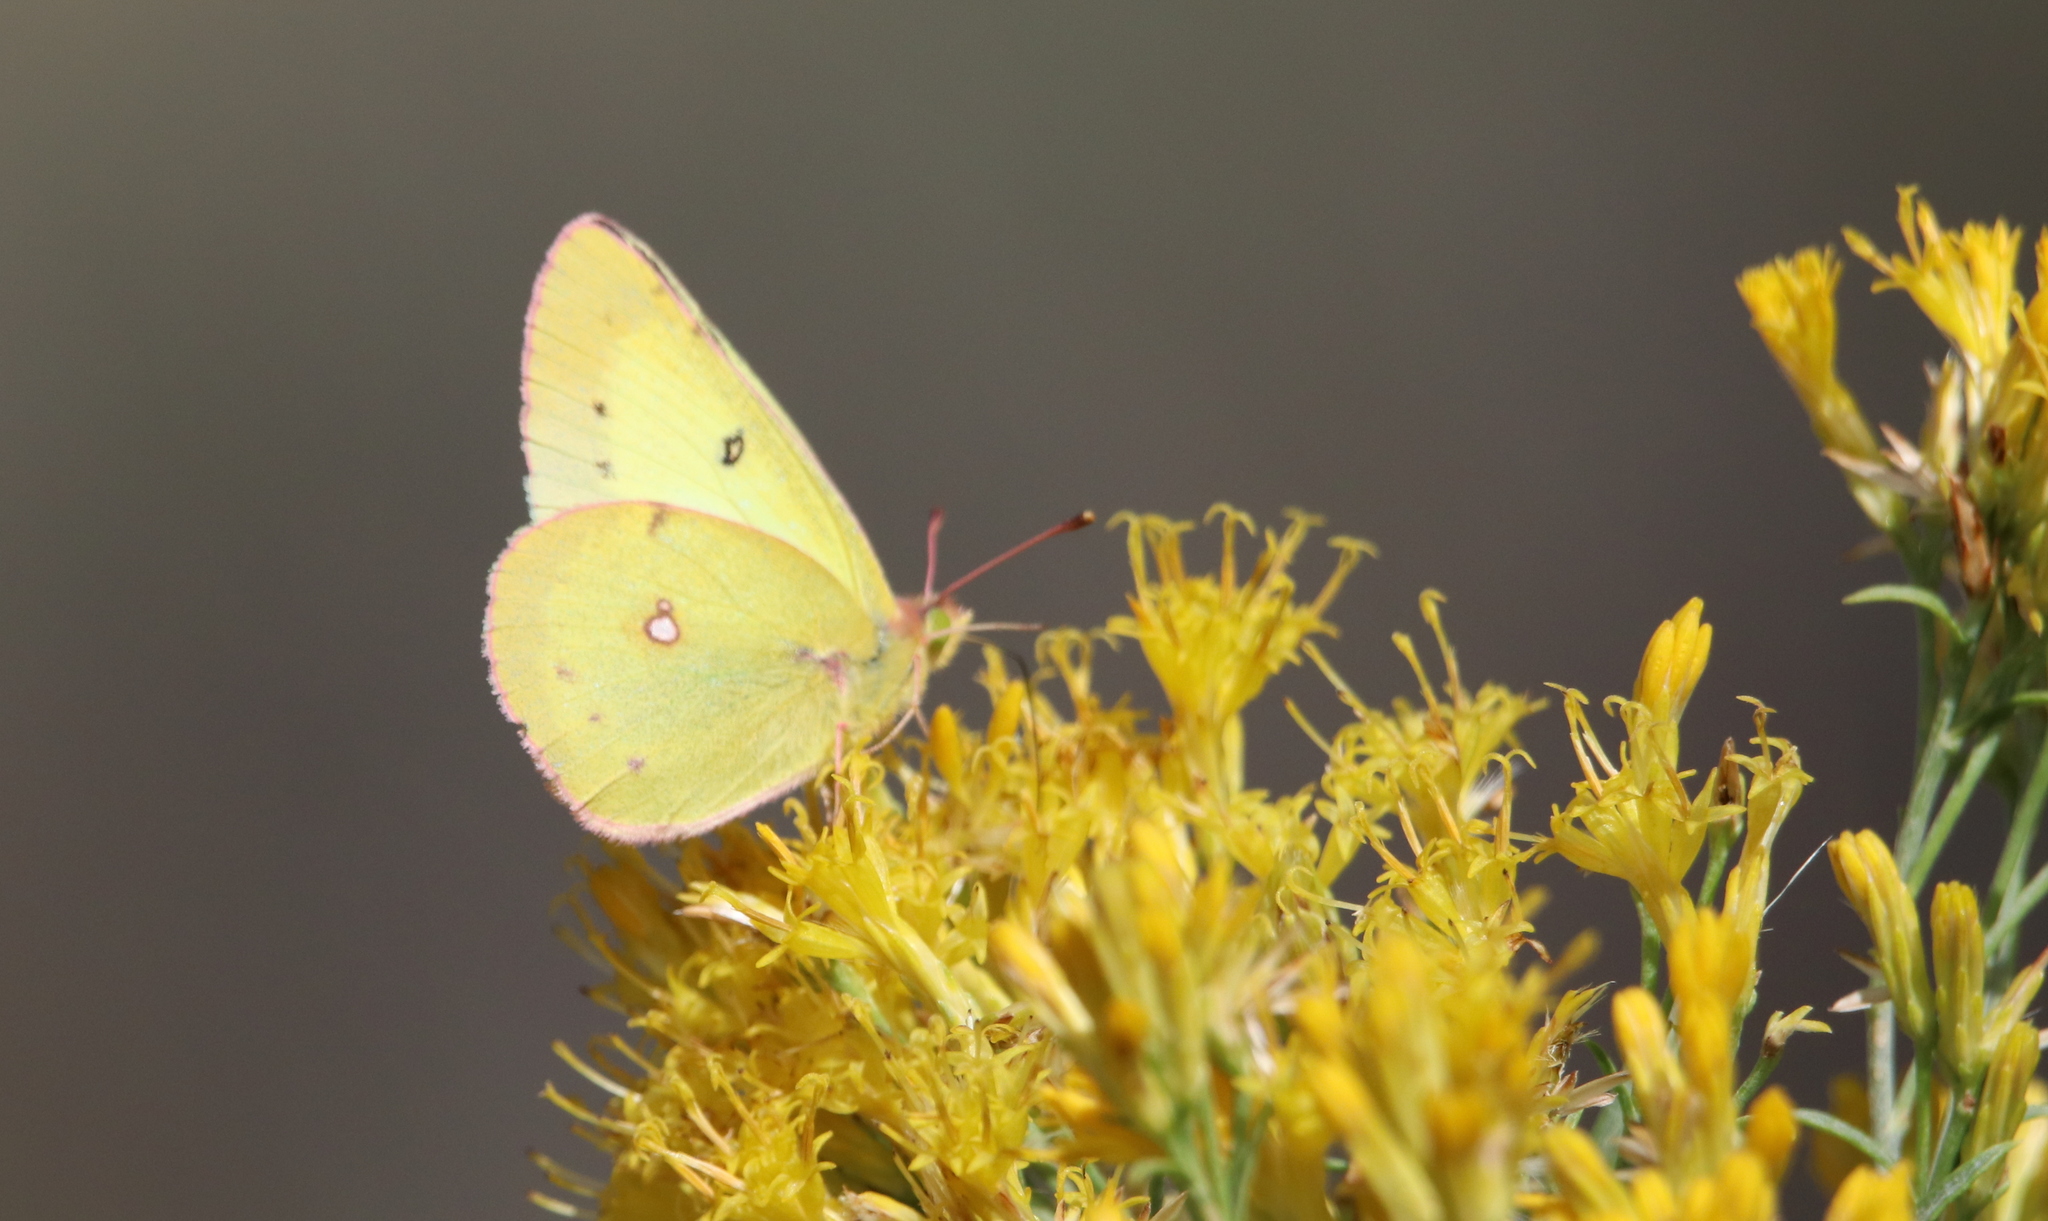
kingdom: Animalia
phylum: Arthropoda
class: Insecta
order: Lepidoptera
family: Pieridae
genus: Colias
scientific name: Colias philodice
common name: Clouded sulphur
